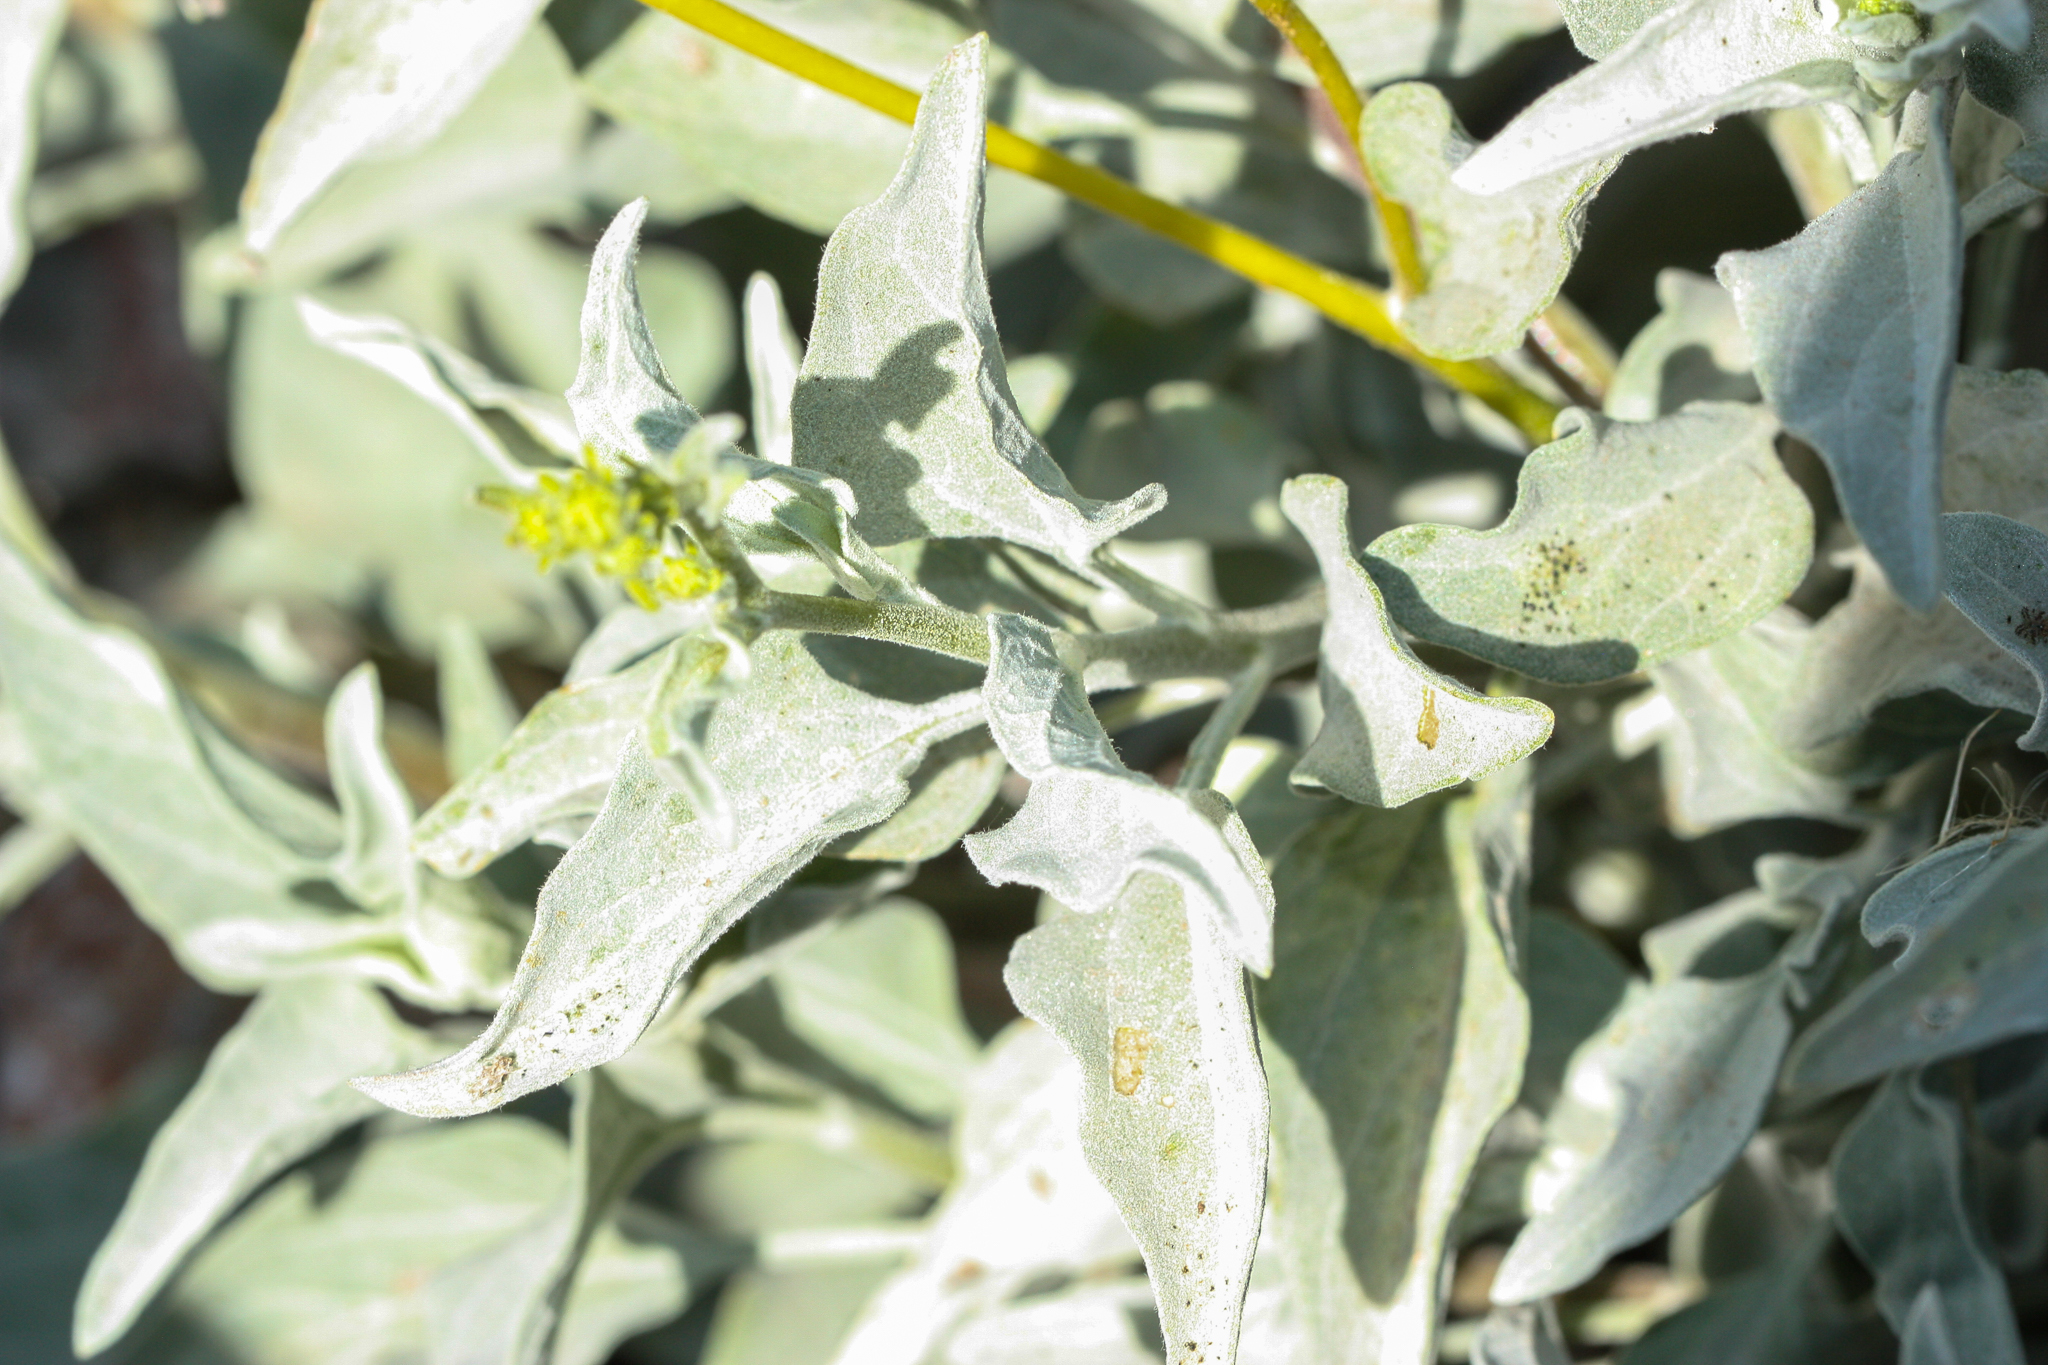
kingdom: Plantae
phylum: Tracheophyta
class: Magnoliopsida
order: Asterales
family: Asteraceae
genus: Encelia
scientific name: Encelia farinosa
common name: Brittlebush
